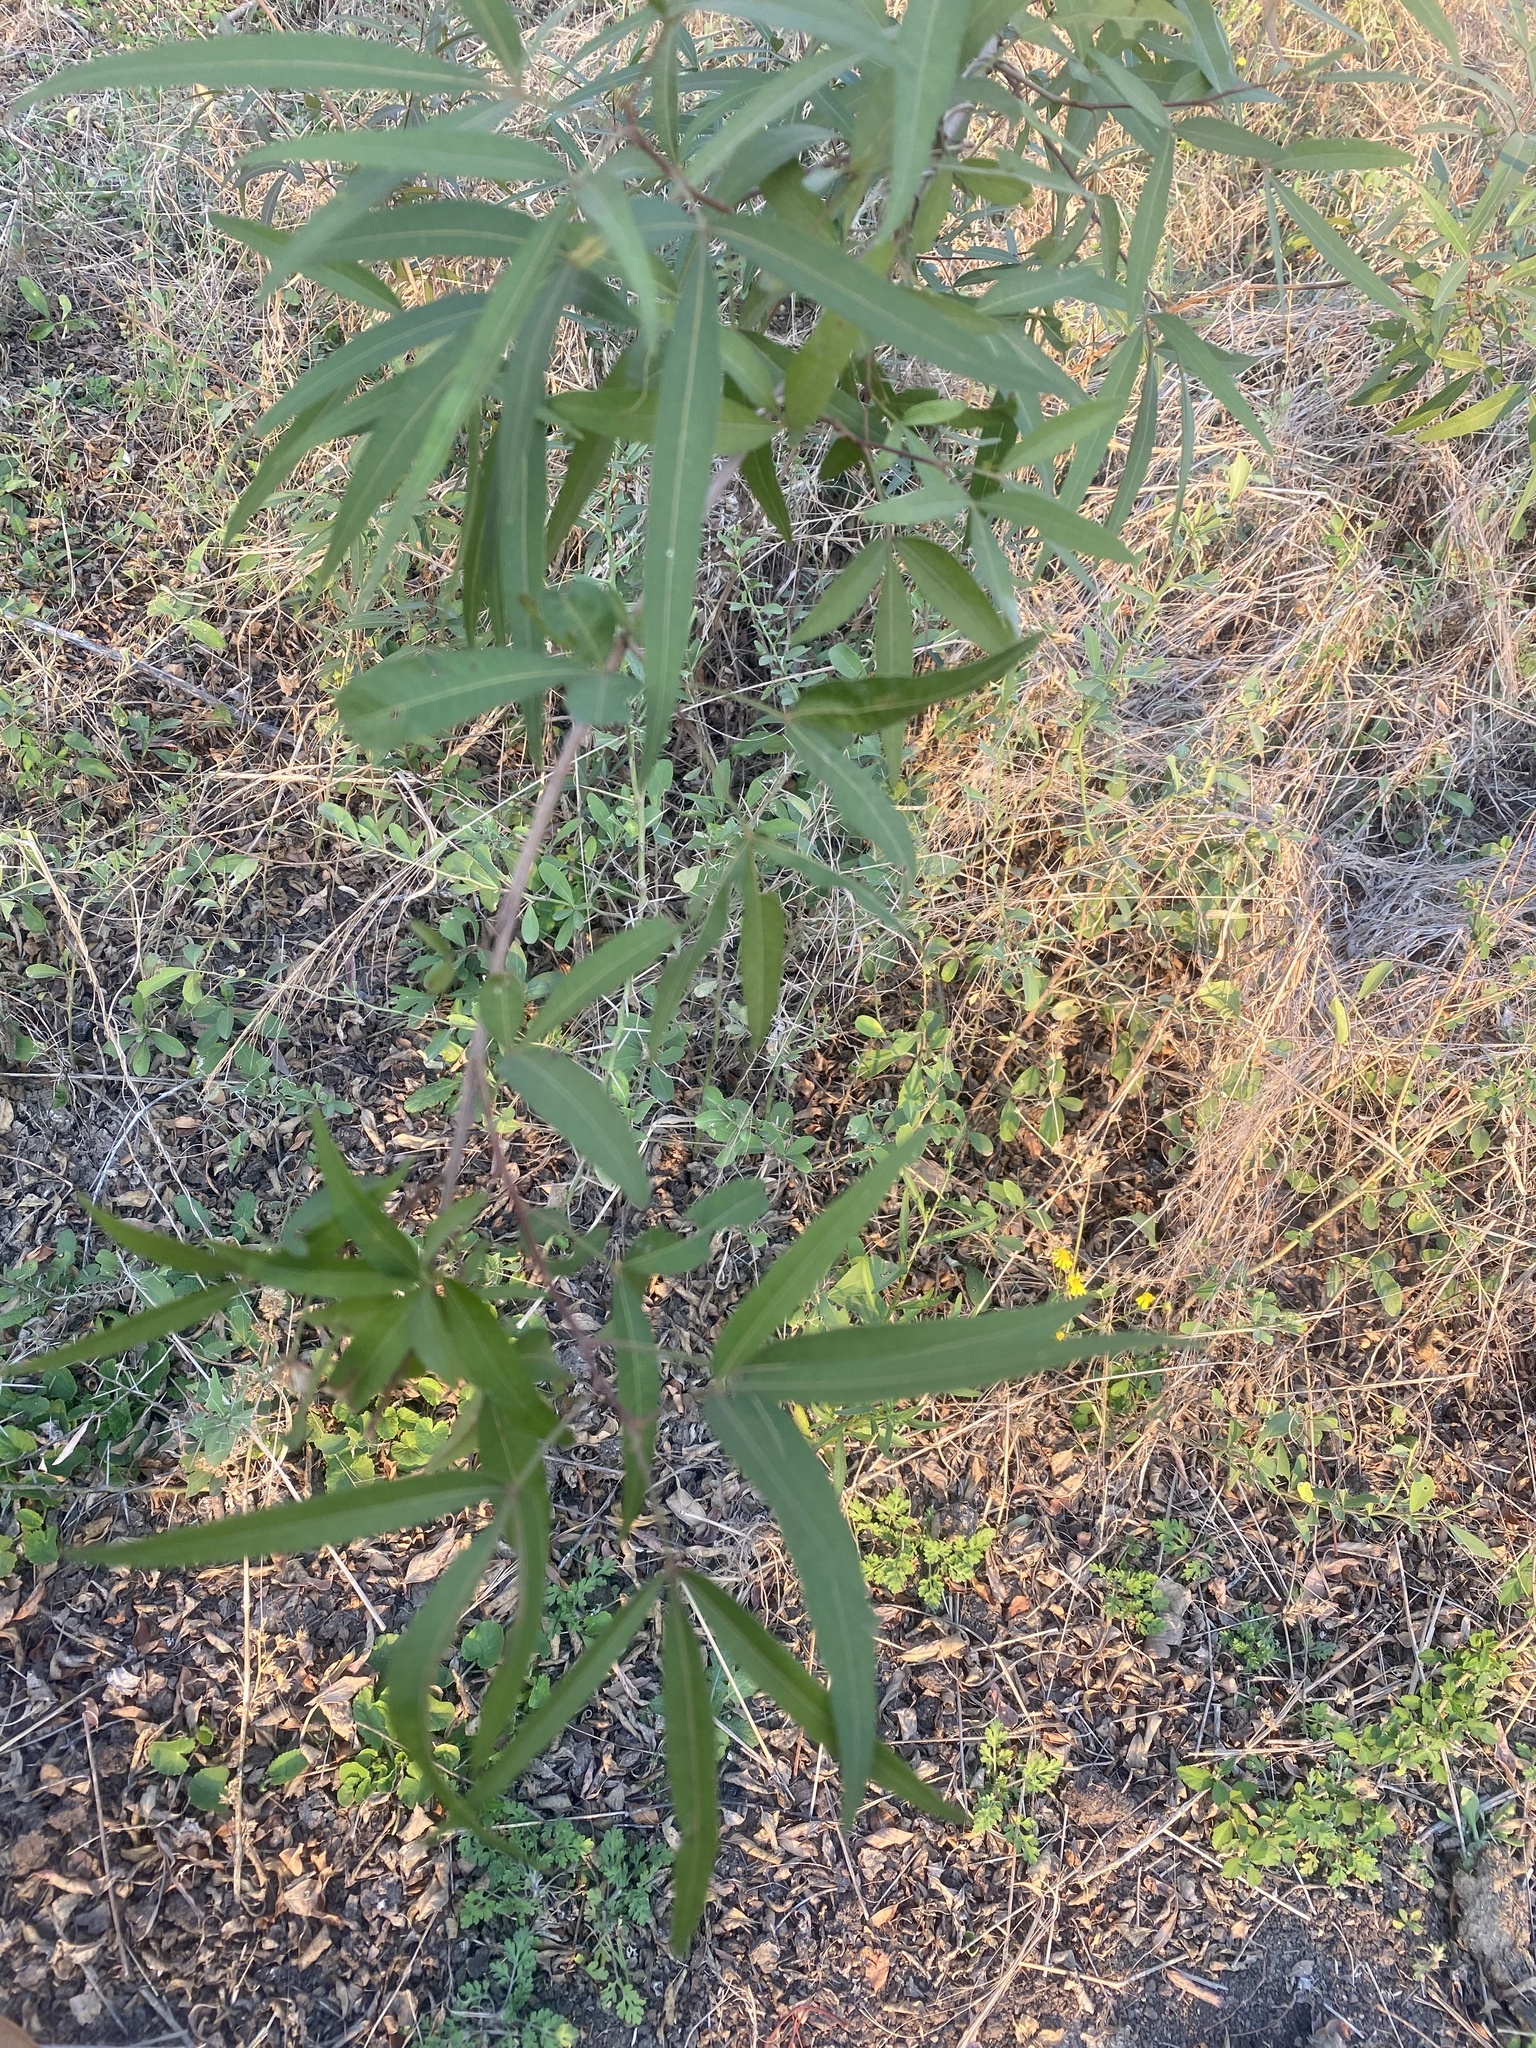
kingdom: Plantae
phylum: Tracheophyta
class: Magnoliopsida
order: Sapindales
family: Anacardiaceae
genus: Searsia
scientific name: Searsia lancea
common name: Cashew
